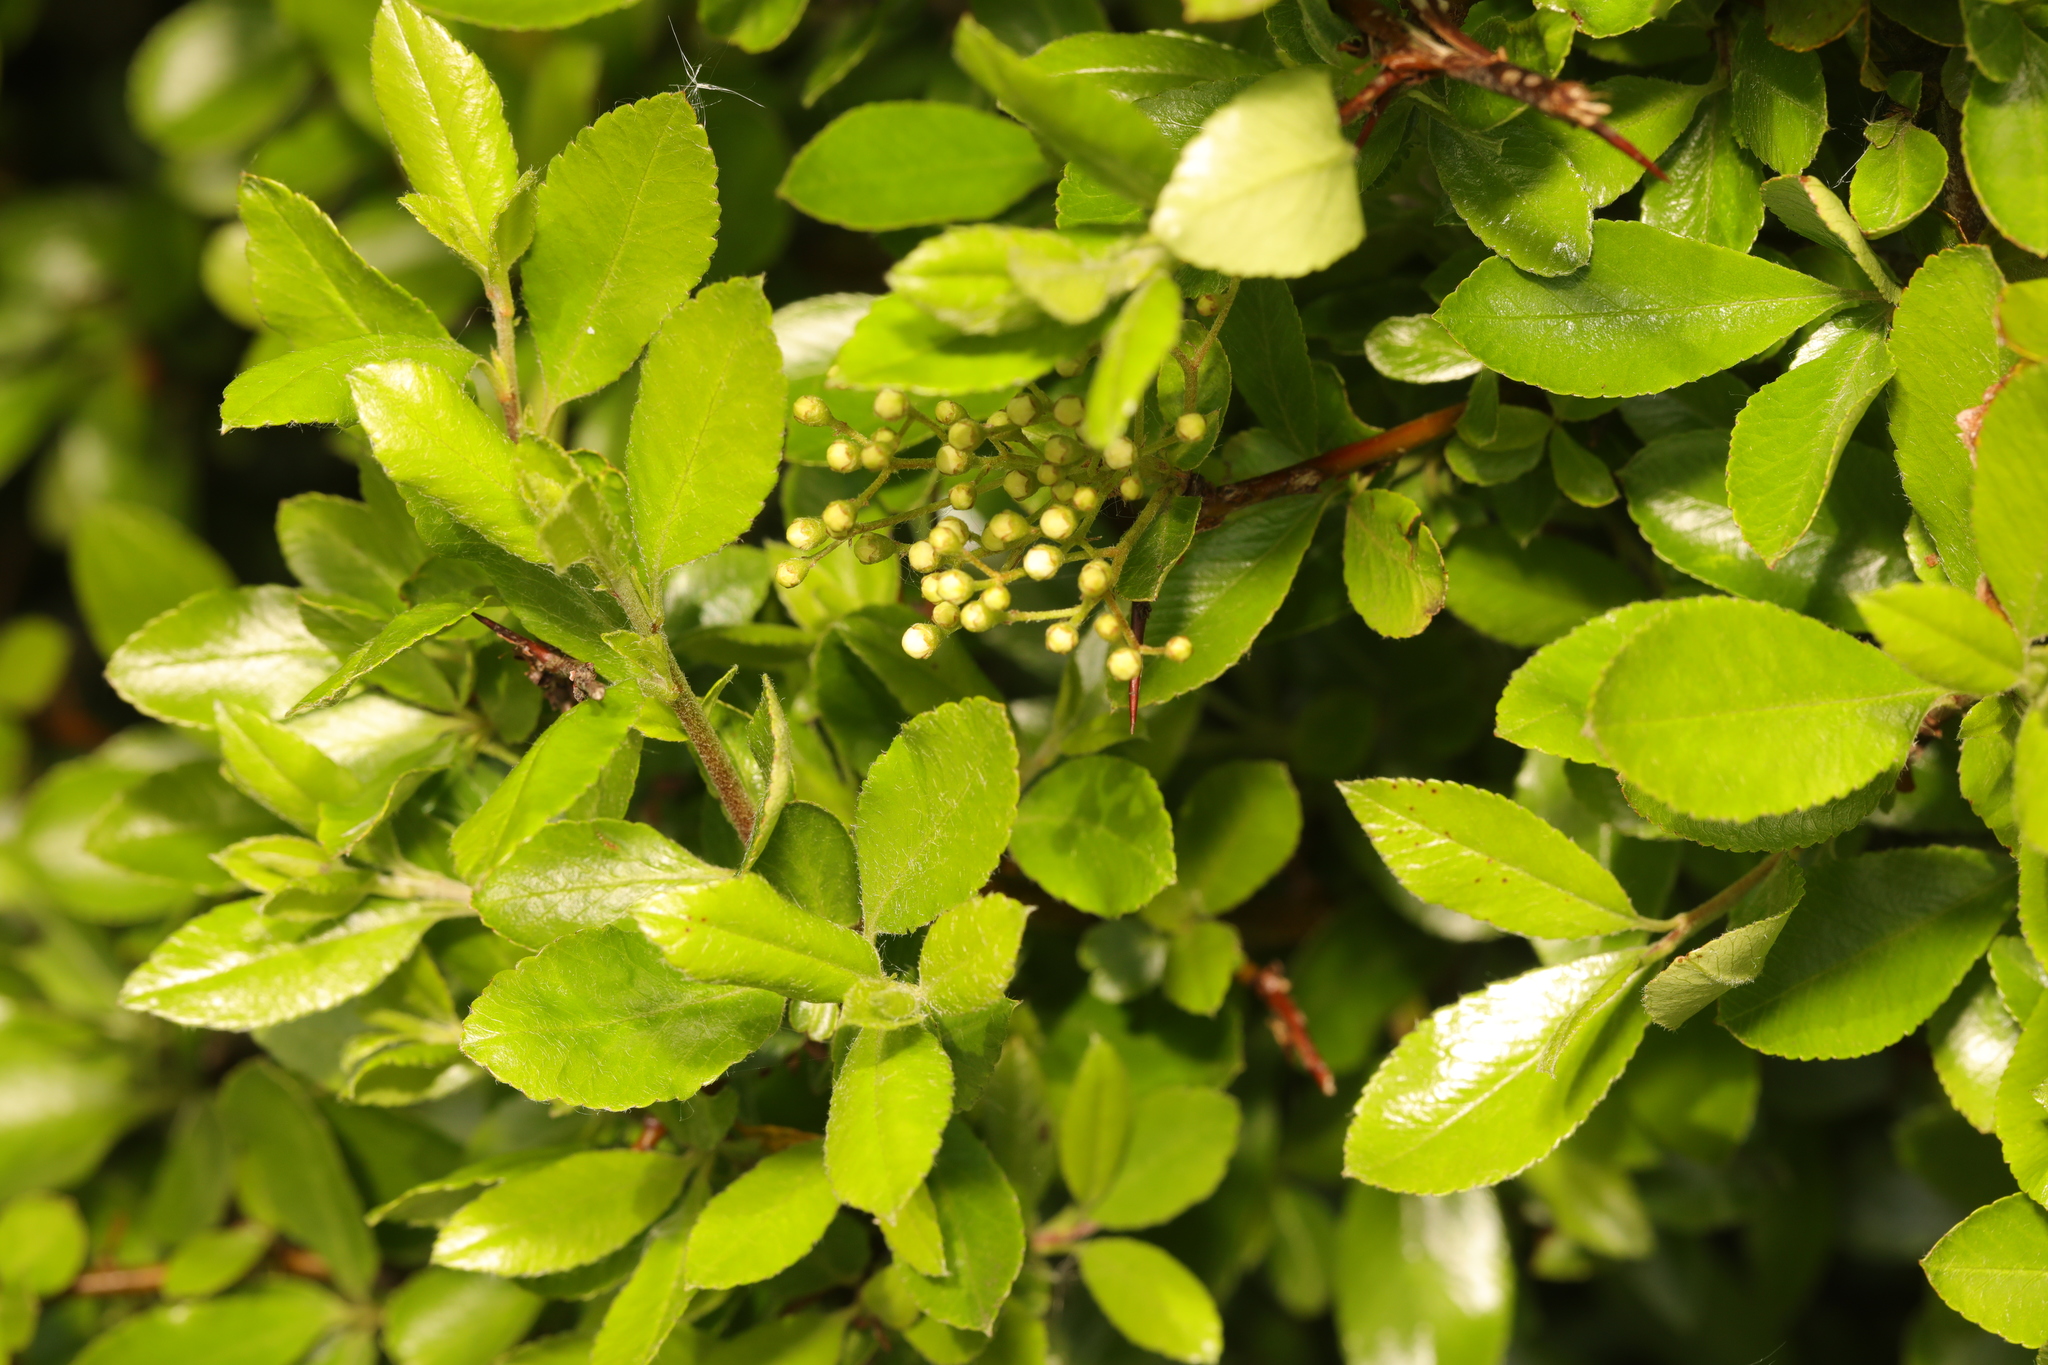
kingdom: Plantae
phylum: Tracheophyta
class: Magnoliopsida
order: Rosales
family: Rosaceae
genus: Pyracantha
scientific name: Pyracantha coccinea
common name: Firethorn
